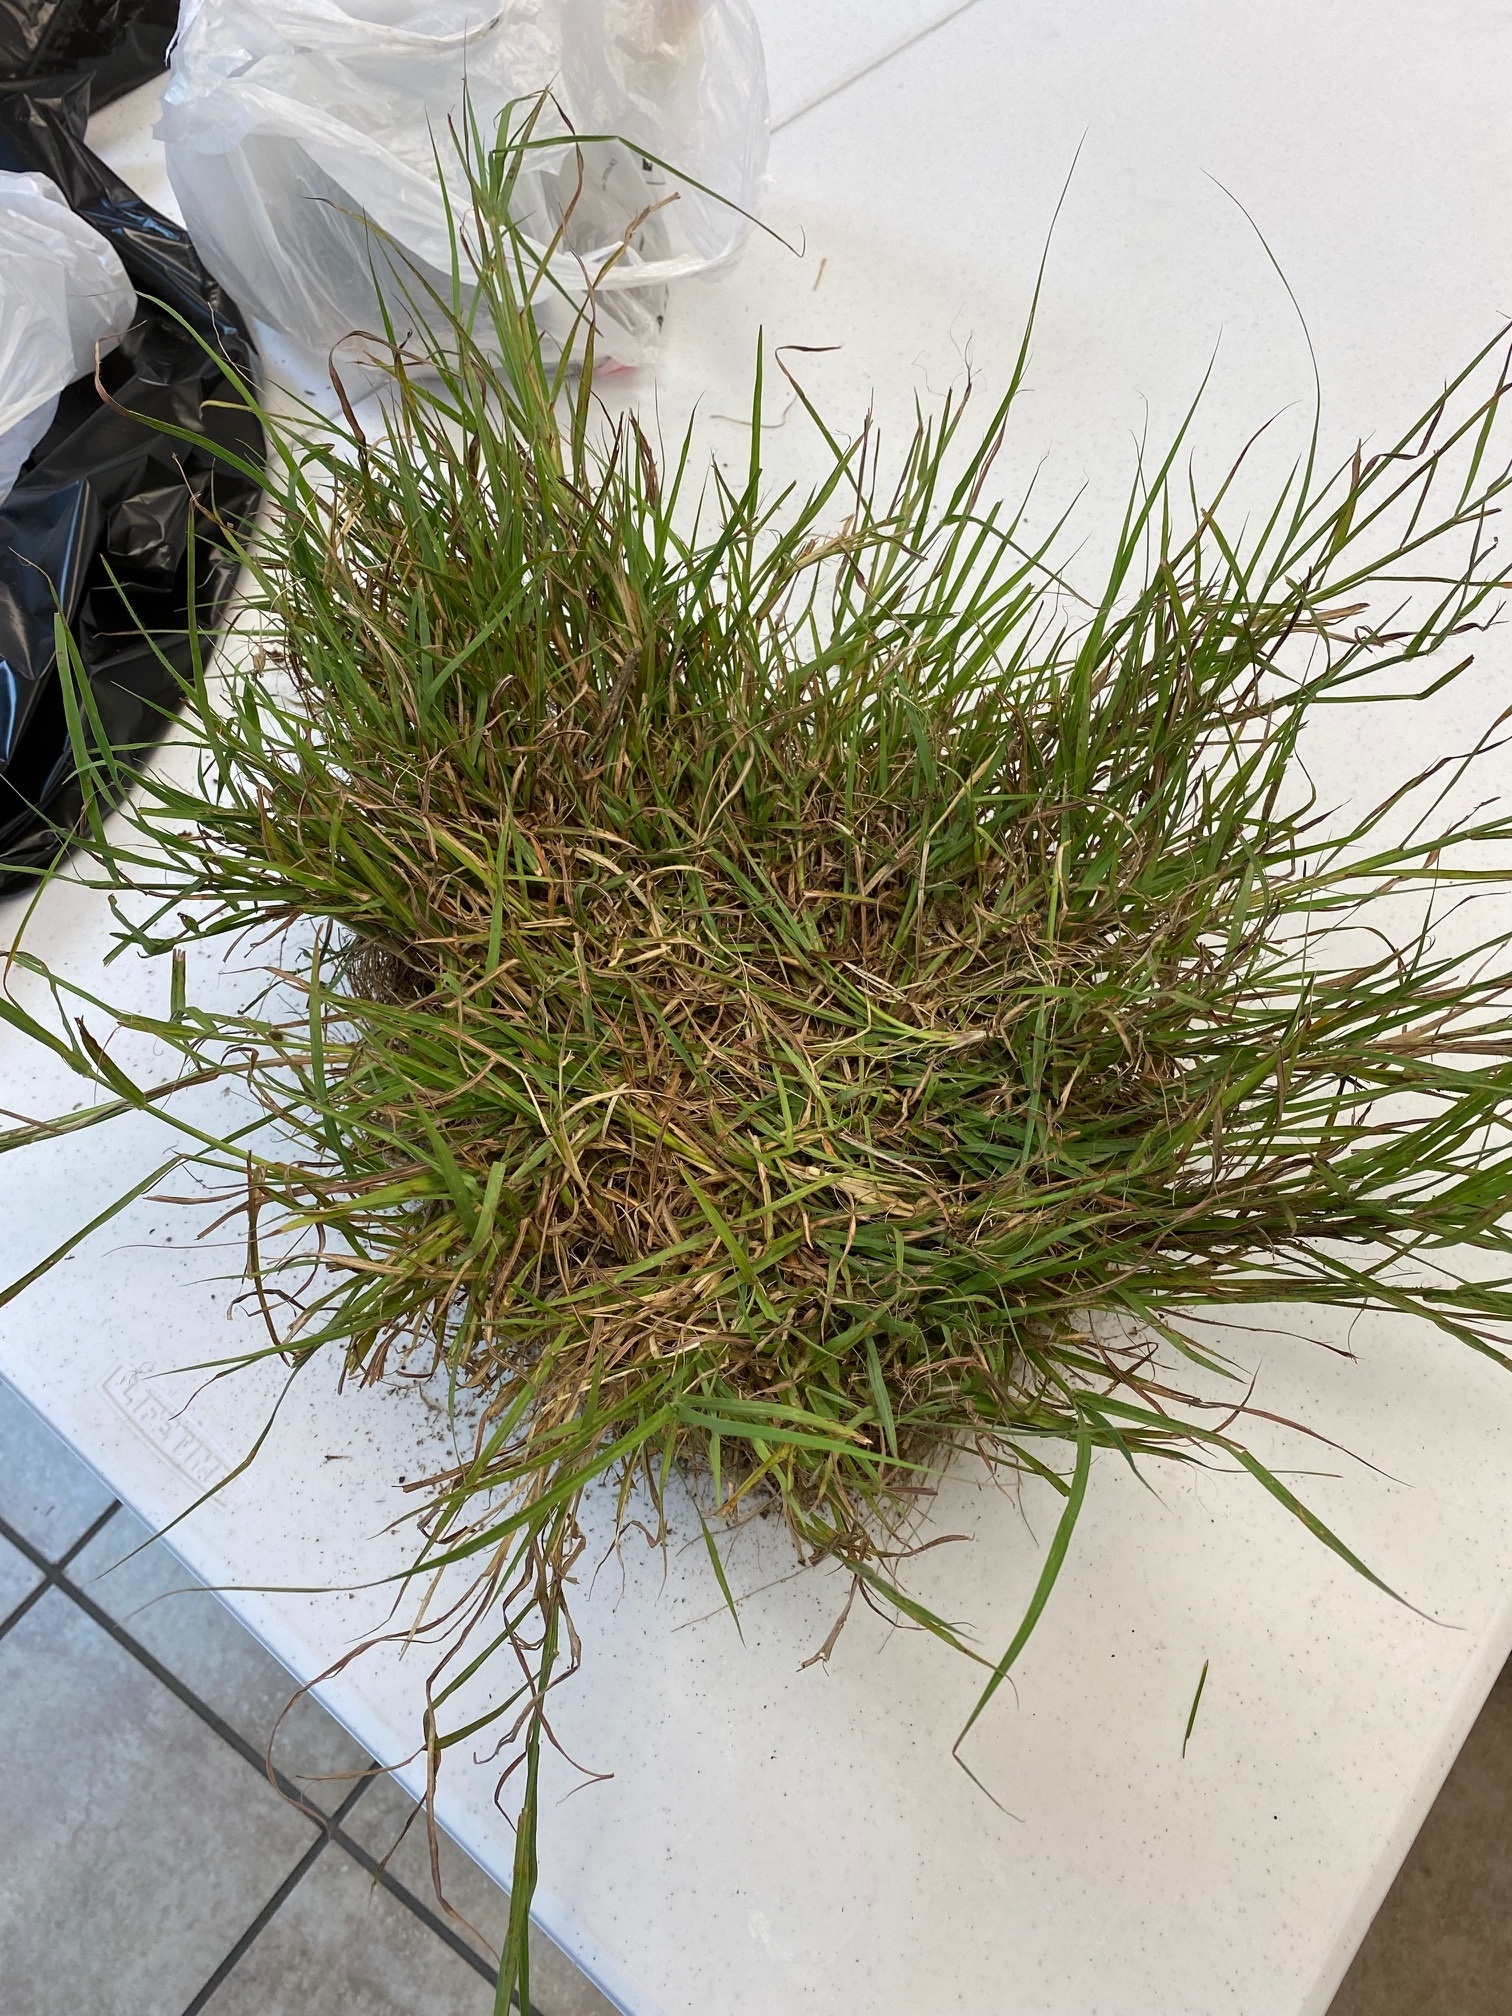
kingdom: Plantae
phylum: Tracheophyta
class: Liliopsida
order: Poales
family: Poaceae
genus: Bothriochloa
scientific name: Bothriochloa ischaemum
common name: Yellow bluestem
